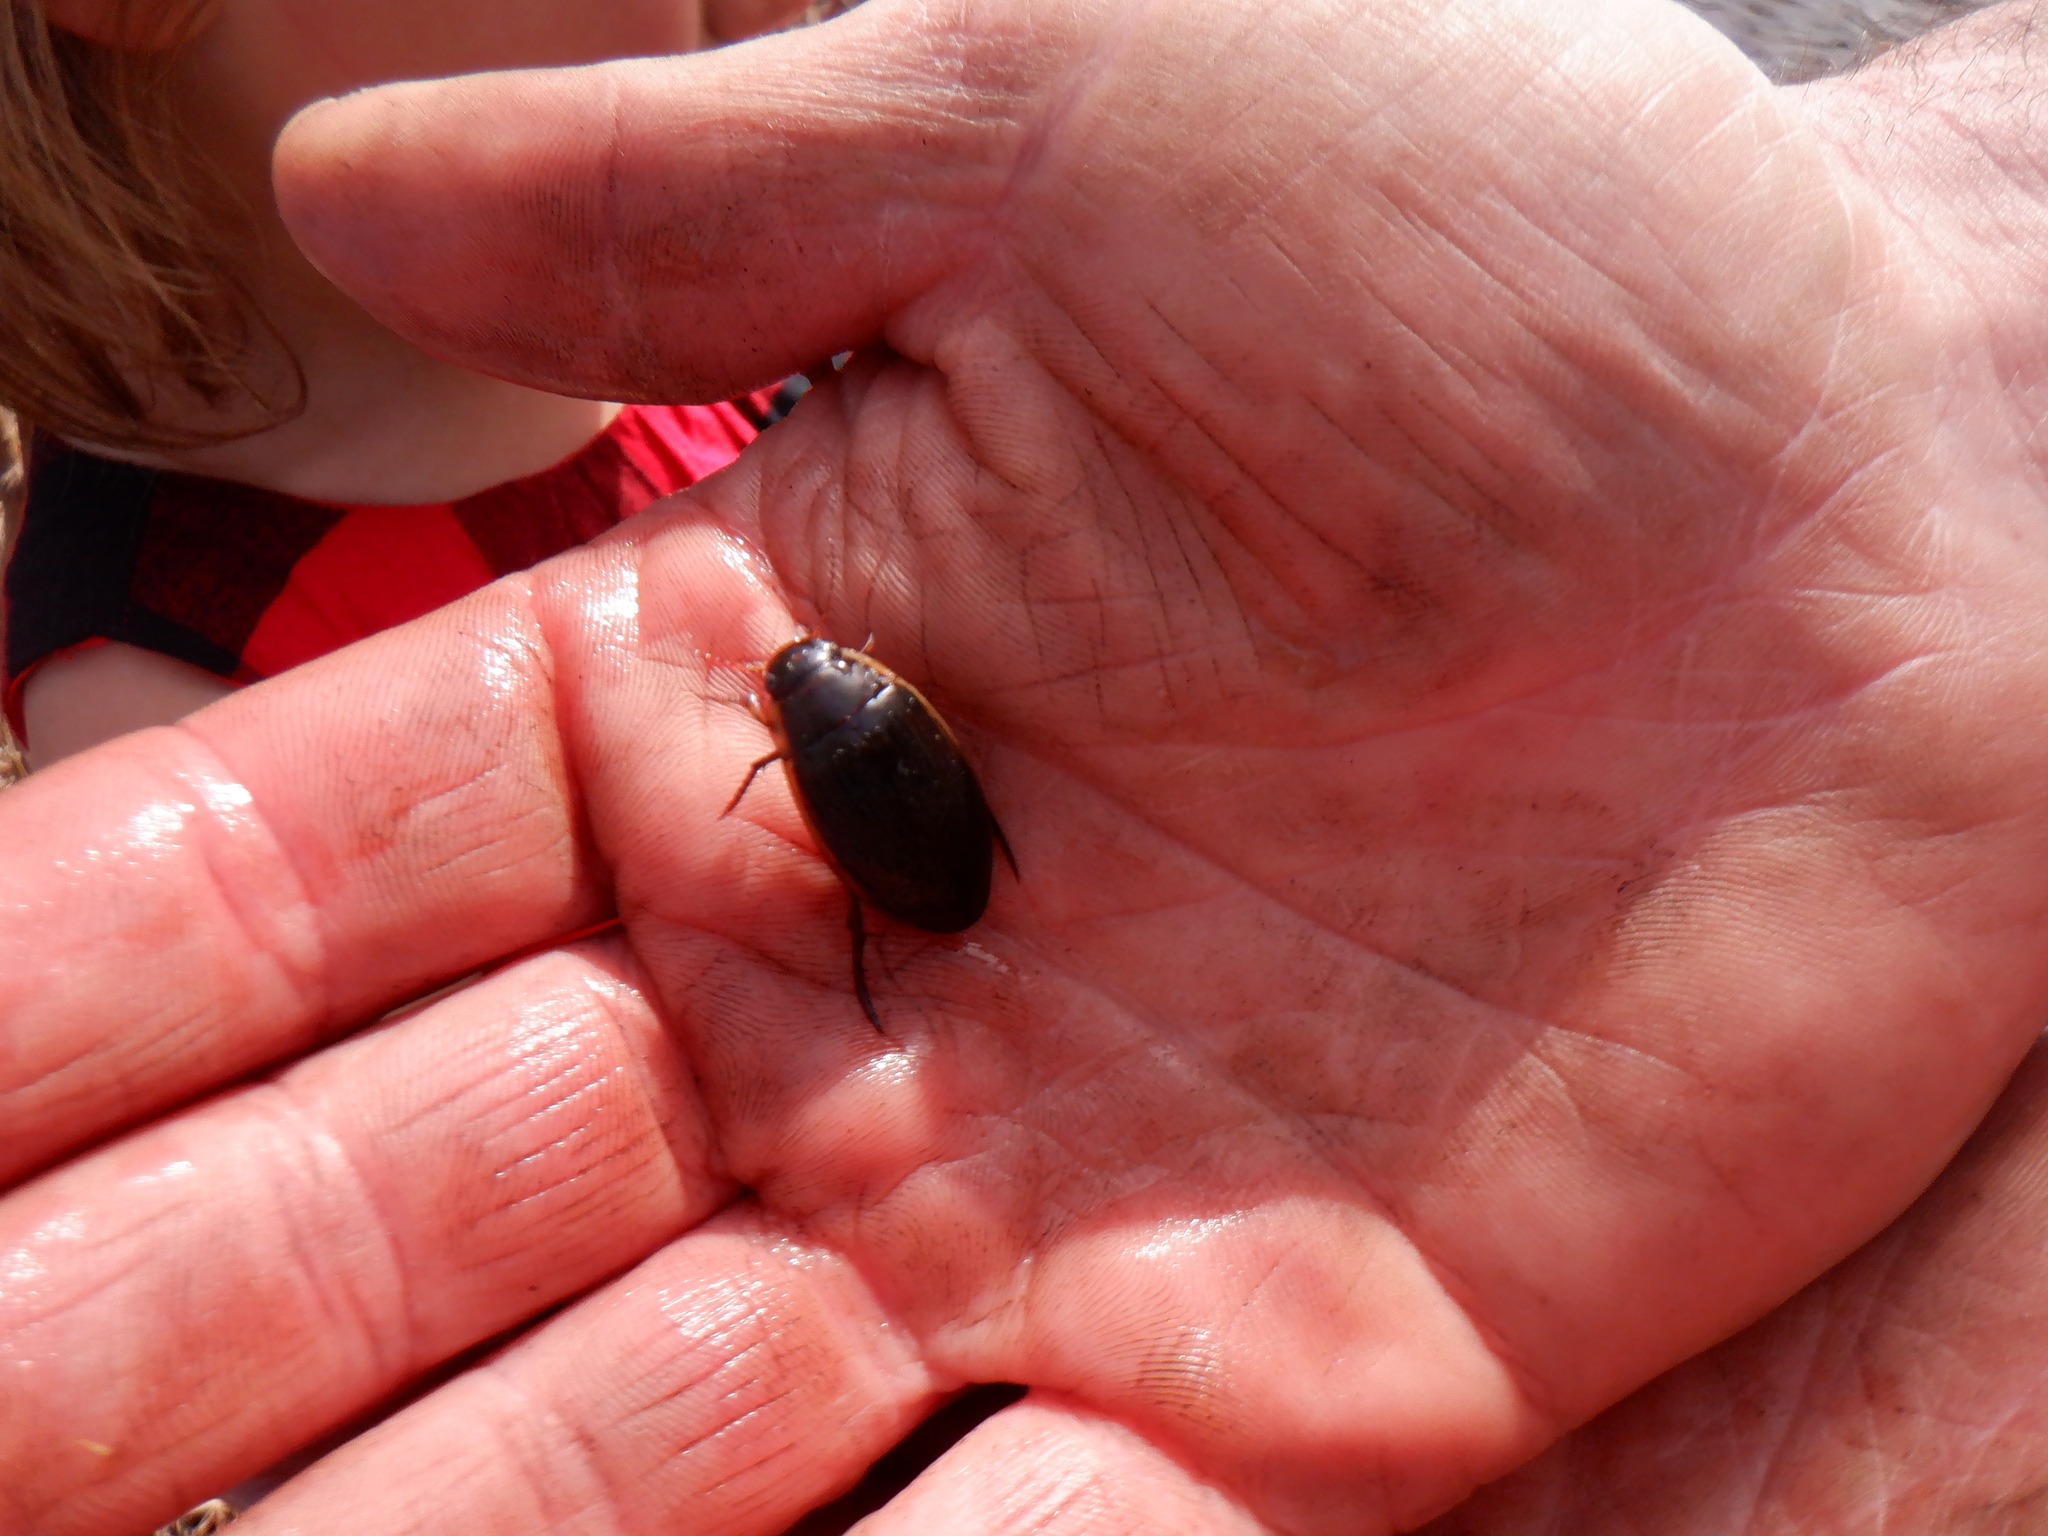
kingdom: Animalia
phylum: Arthropoda
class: Insecta
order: Coleoptera
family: Dytiscidae
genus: Dytiscus
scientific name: Dytiscus fasciventris
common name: Understriped diving beetle
